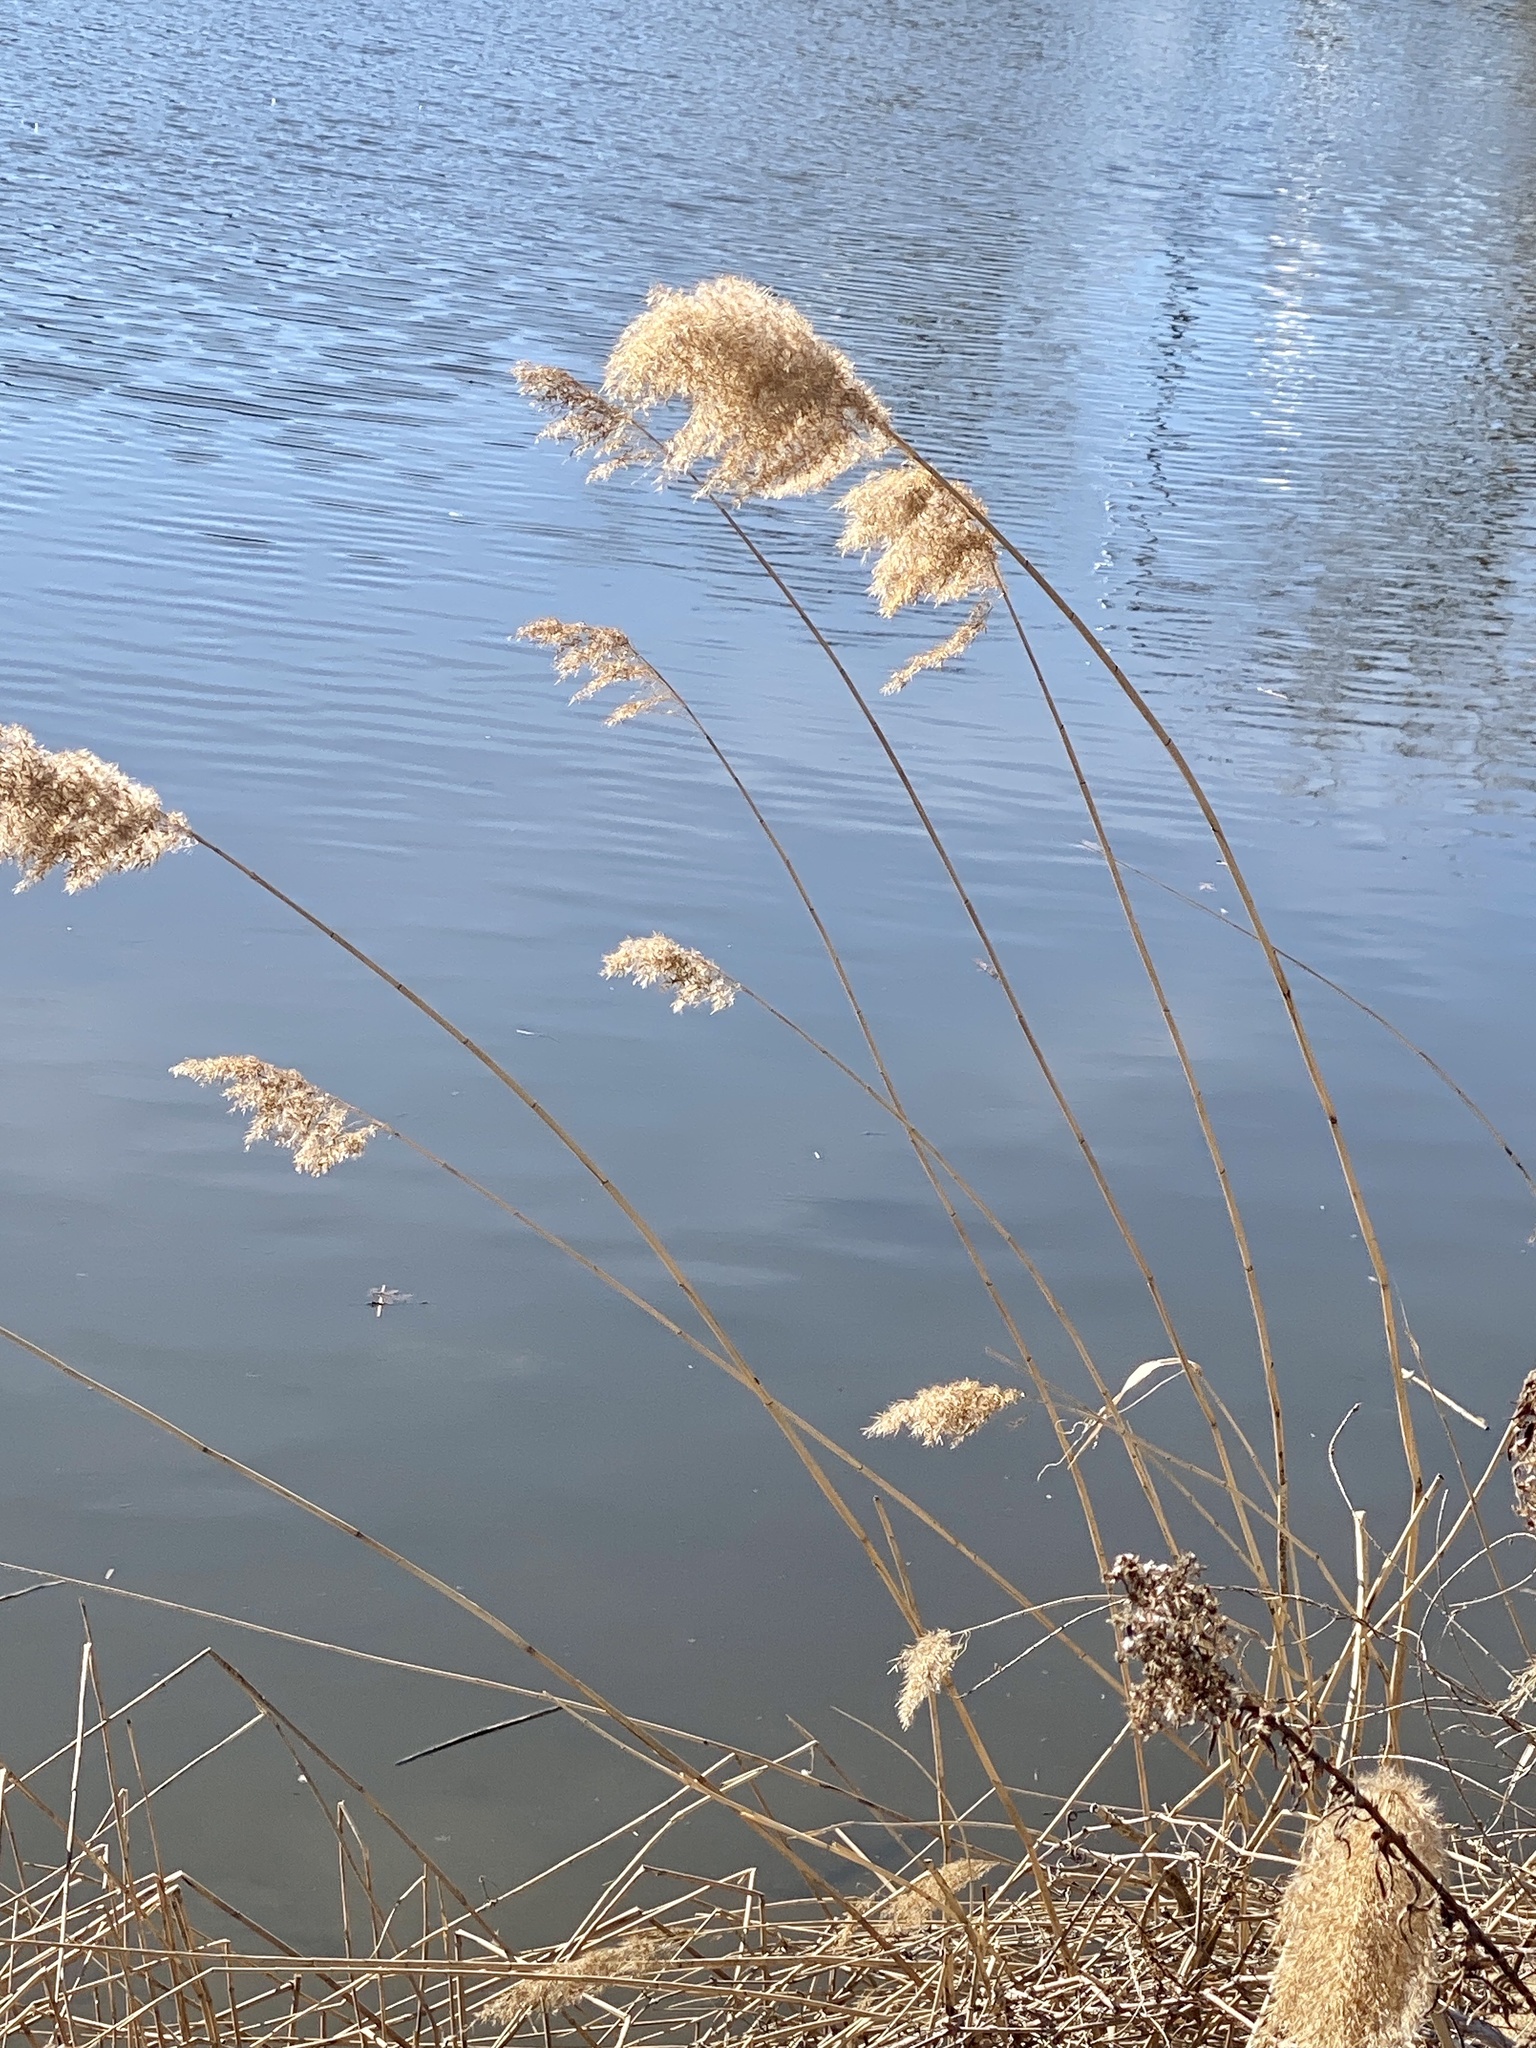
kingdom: Plantae
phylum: Tracheophyta
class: Liliopsida
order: Poales
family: Poaceae
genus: Phragmites
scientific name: Phragmites australis
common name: Common reed
